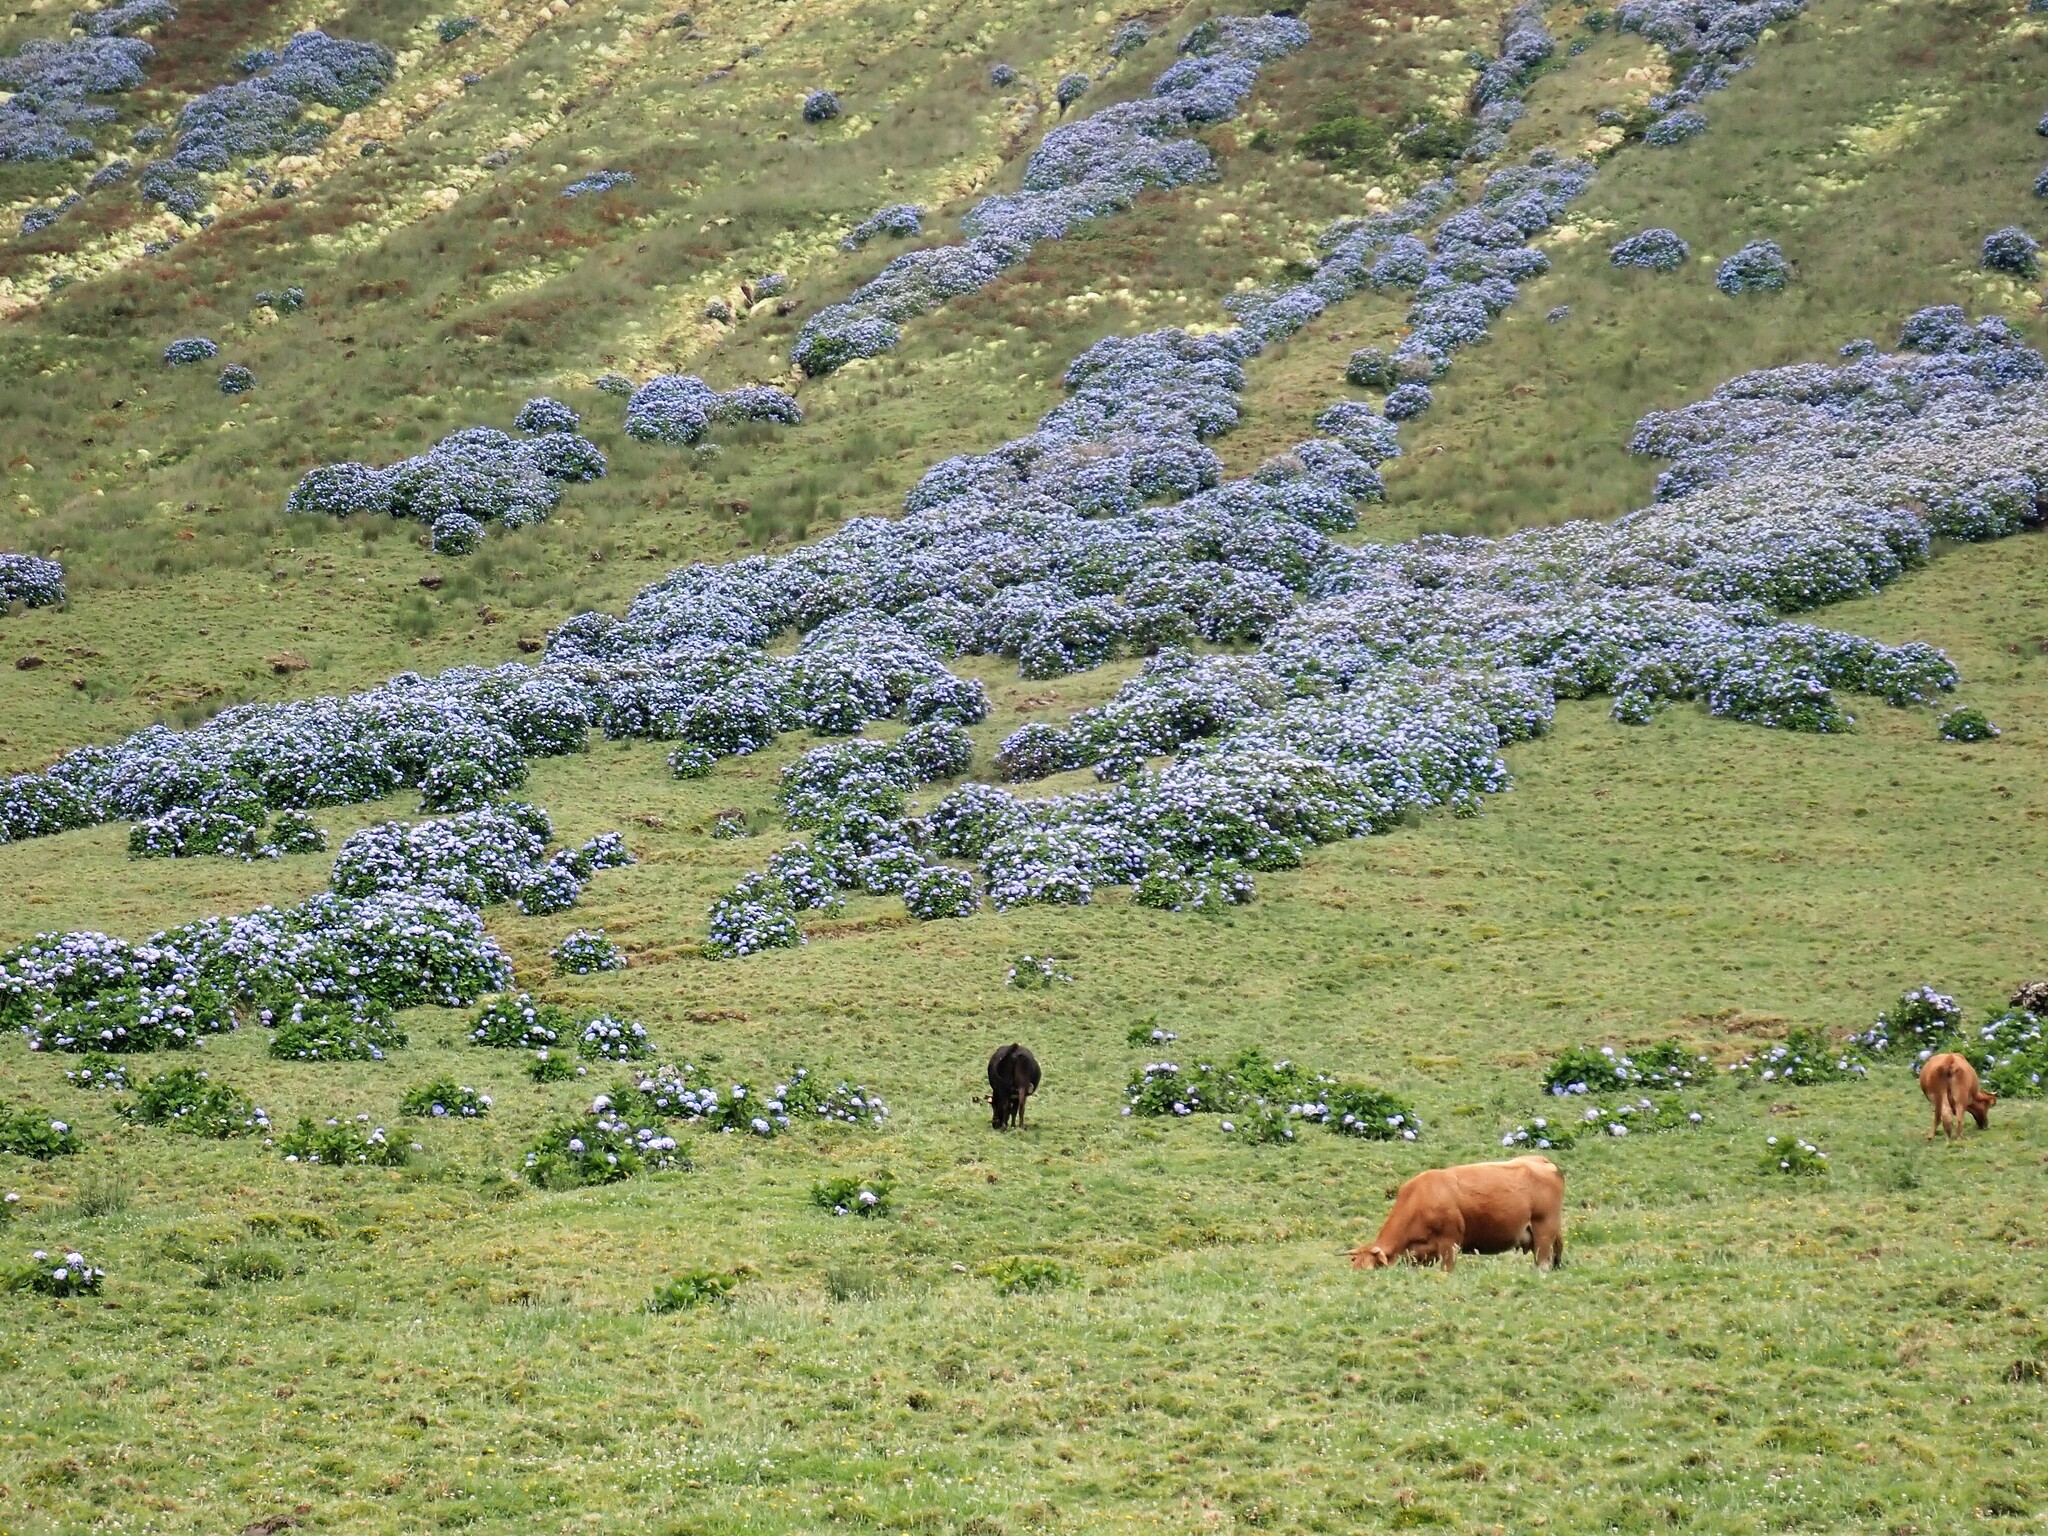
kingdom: Plantae
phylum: Tracheophyta
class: Magnoliopsida
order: Cornales
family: Hydrangeaceae
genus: Hydrangea
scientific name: Hydrangea macrophylla
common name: Hydrangea
